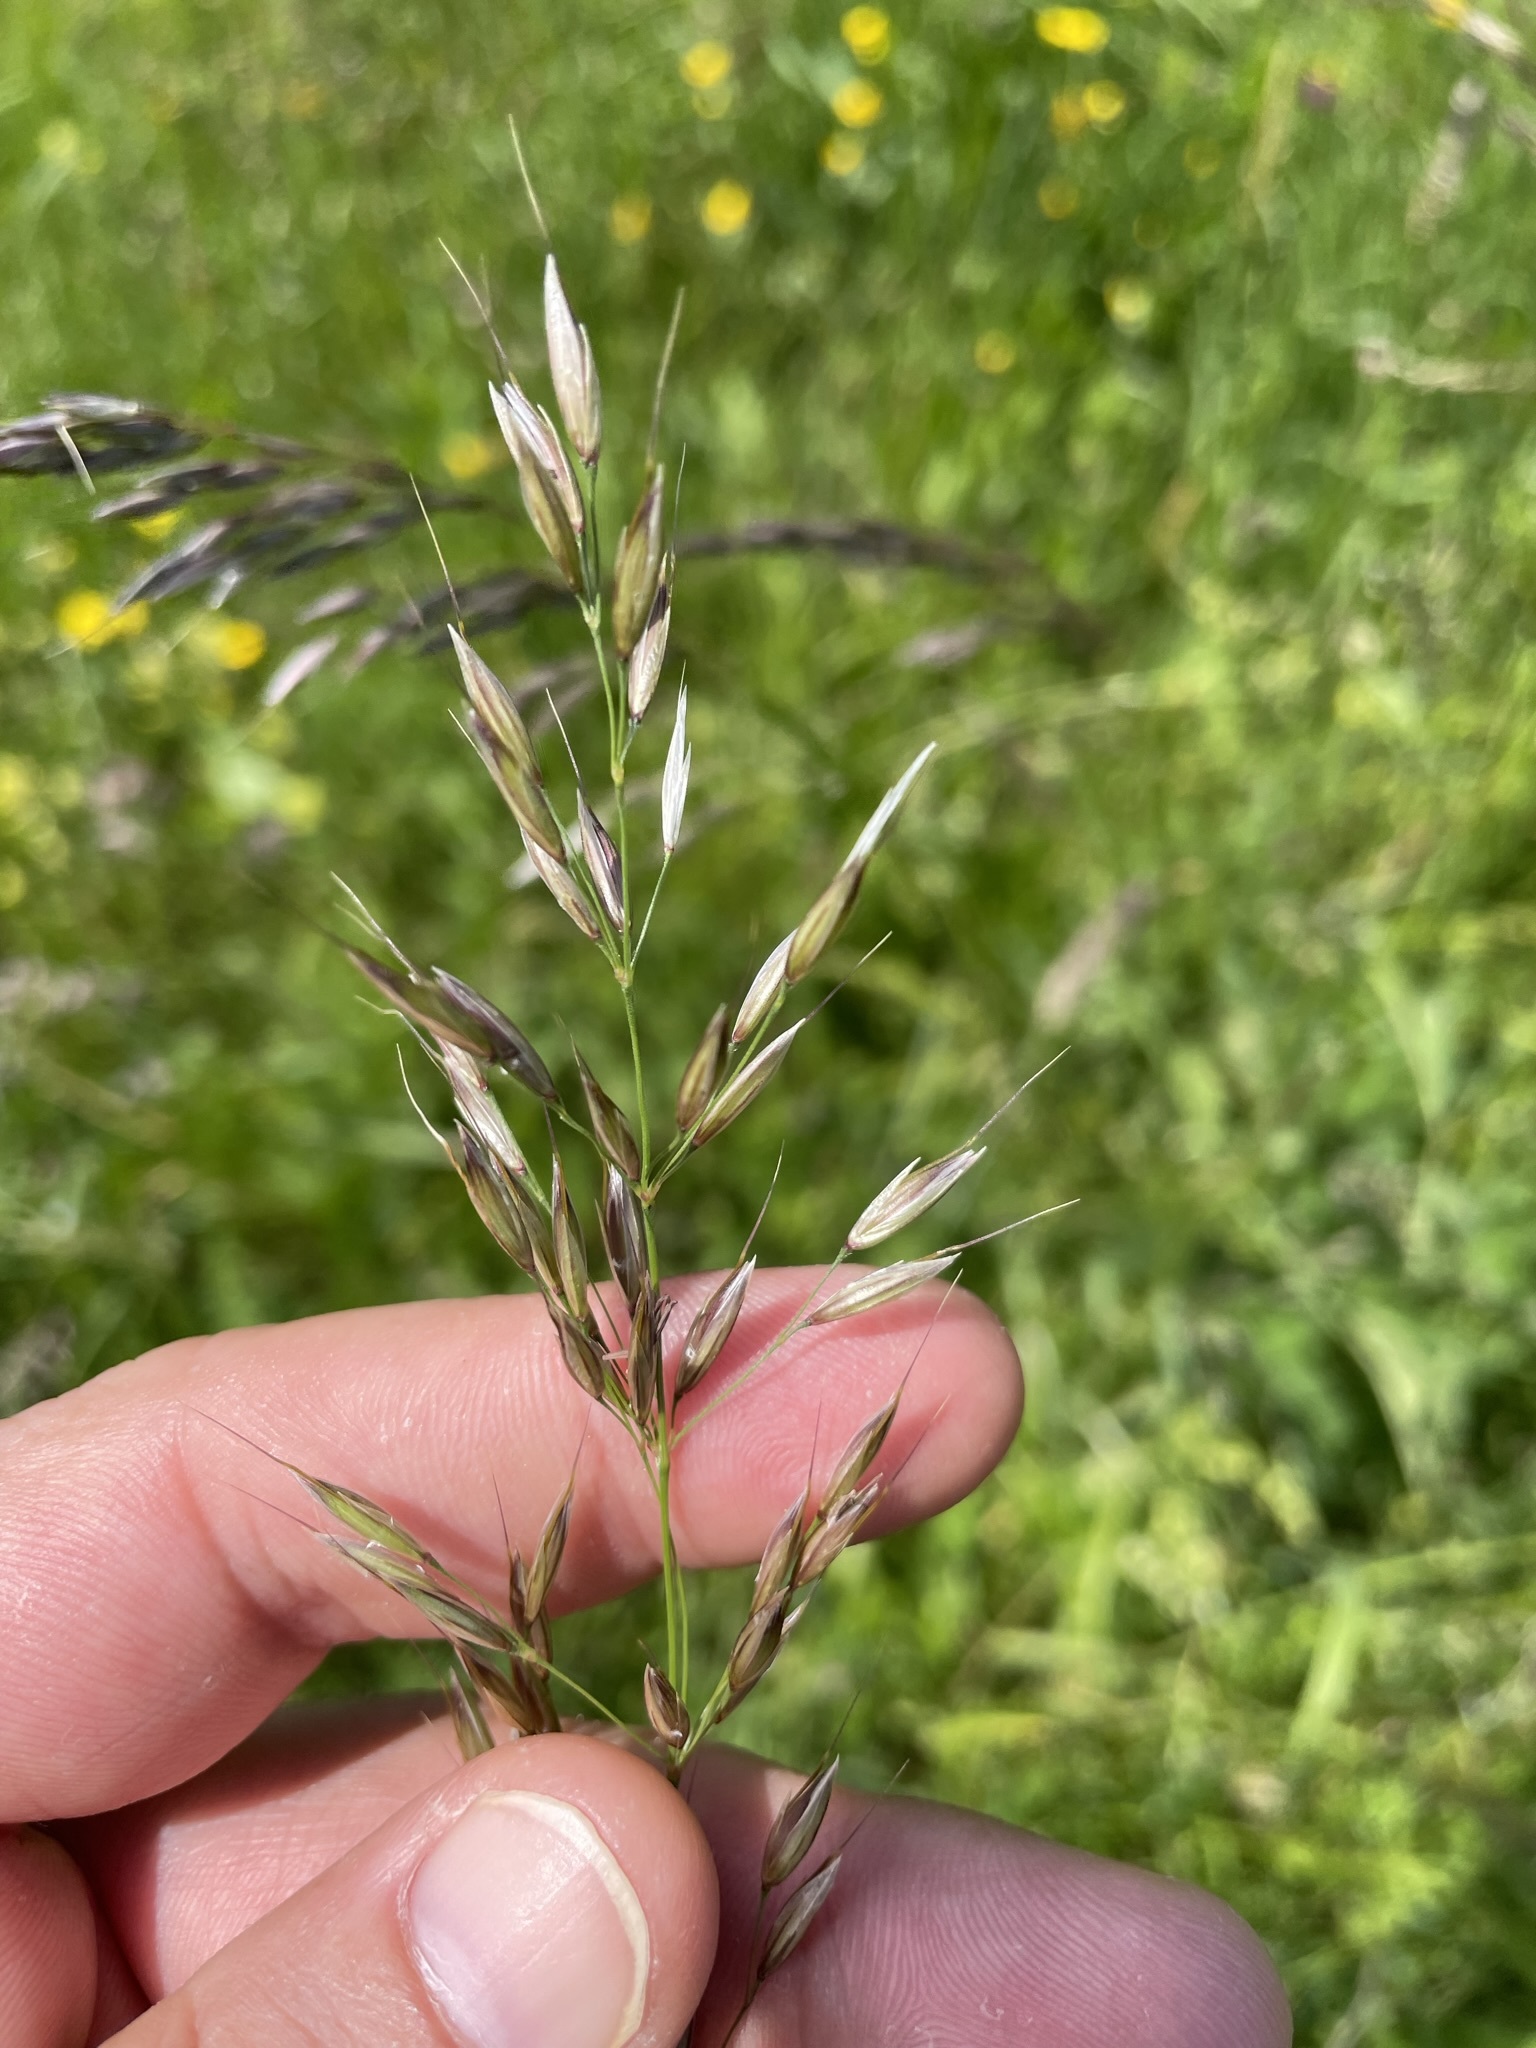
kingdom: Plantae
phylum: Tracheophyta
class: Liliopsida
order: Poales
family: Poaceae
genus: Arrhenatherum
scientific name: Arrhenatherum elatius
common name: Tall oatgrass
